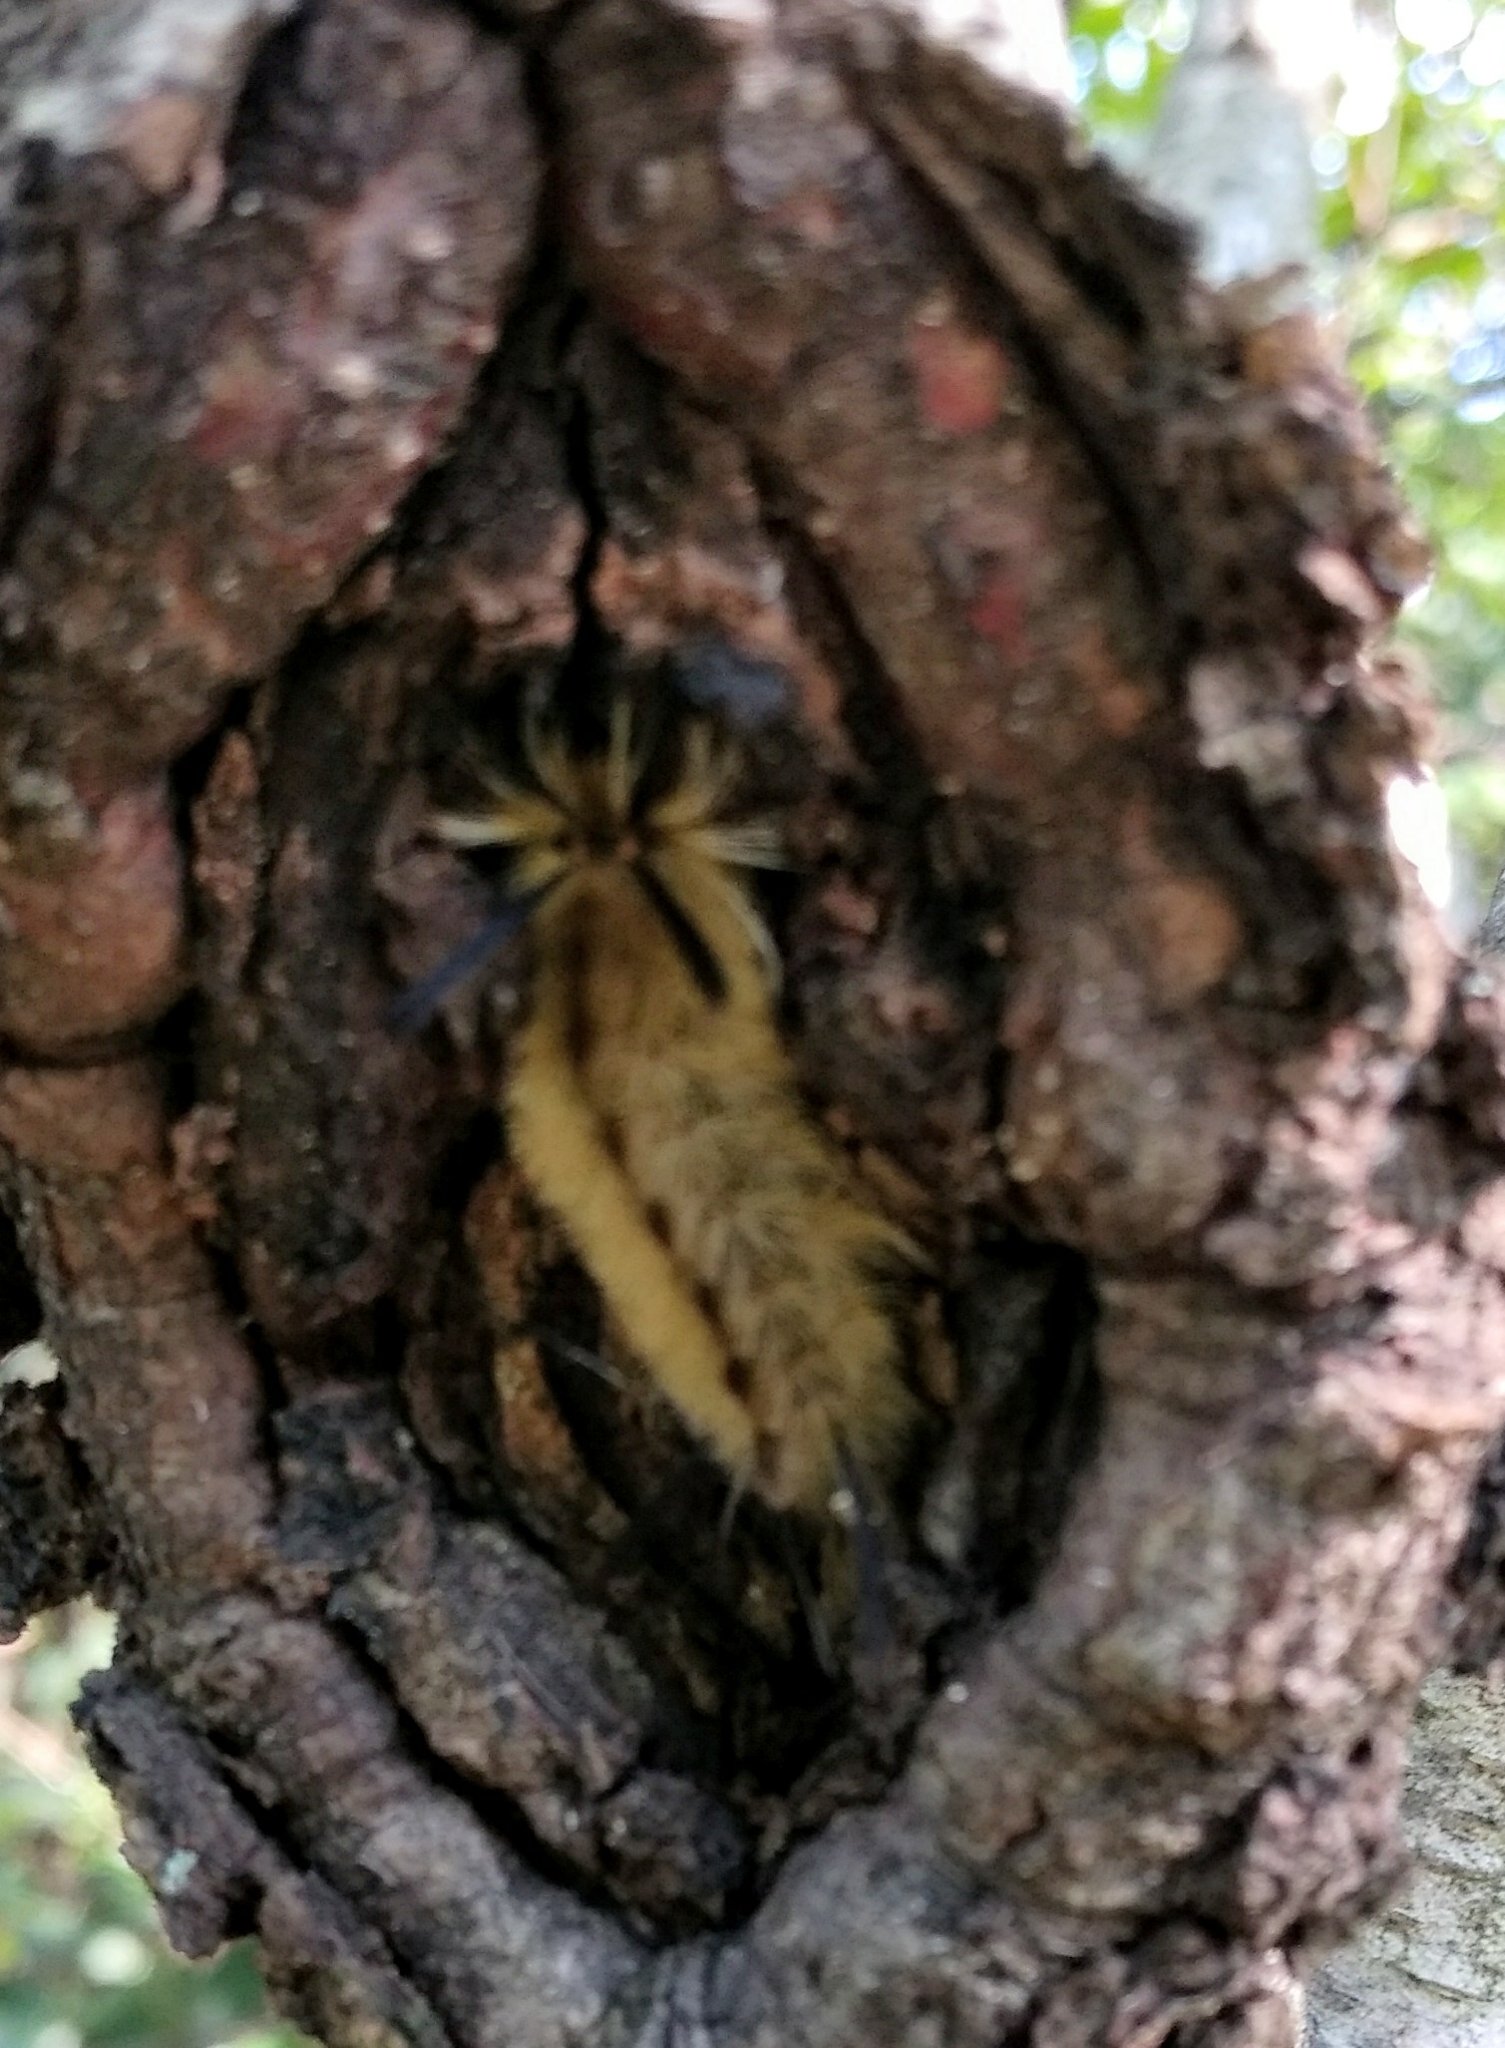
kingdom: Animalia
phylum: Arthropoda
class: Insecta
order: Lepidoptera
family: Erebidae
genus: Halysidota
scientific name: Halysidota tessellaris
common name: Banded tussock moth
